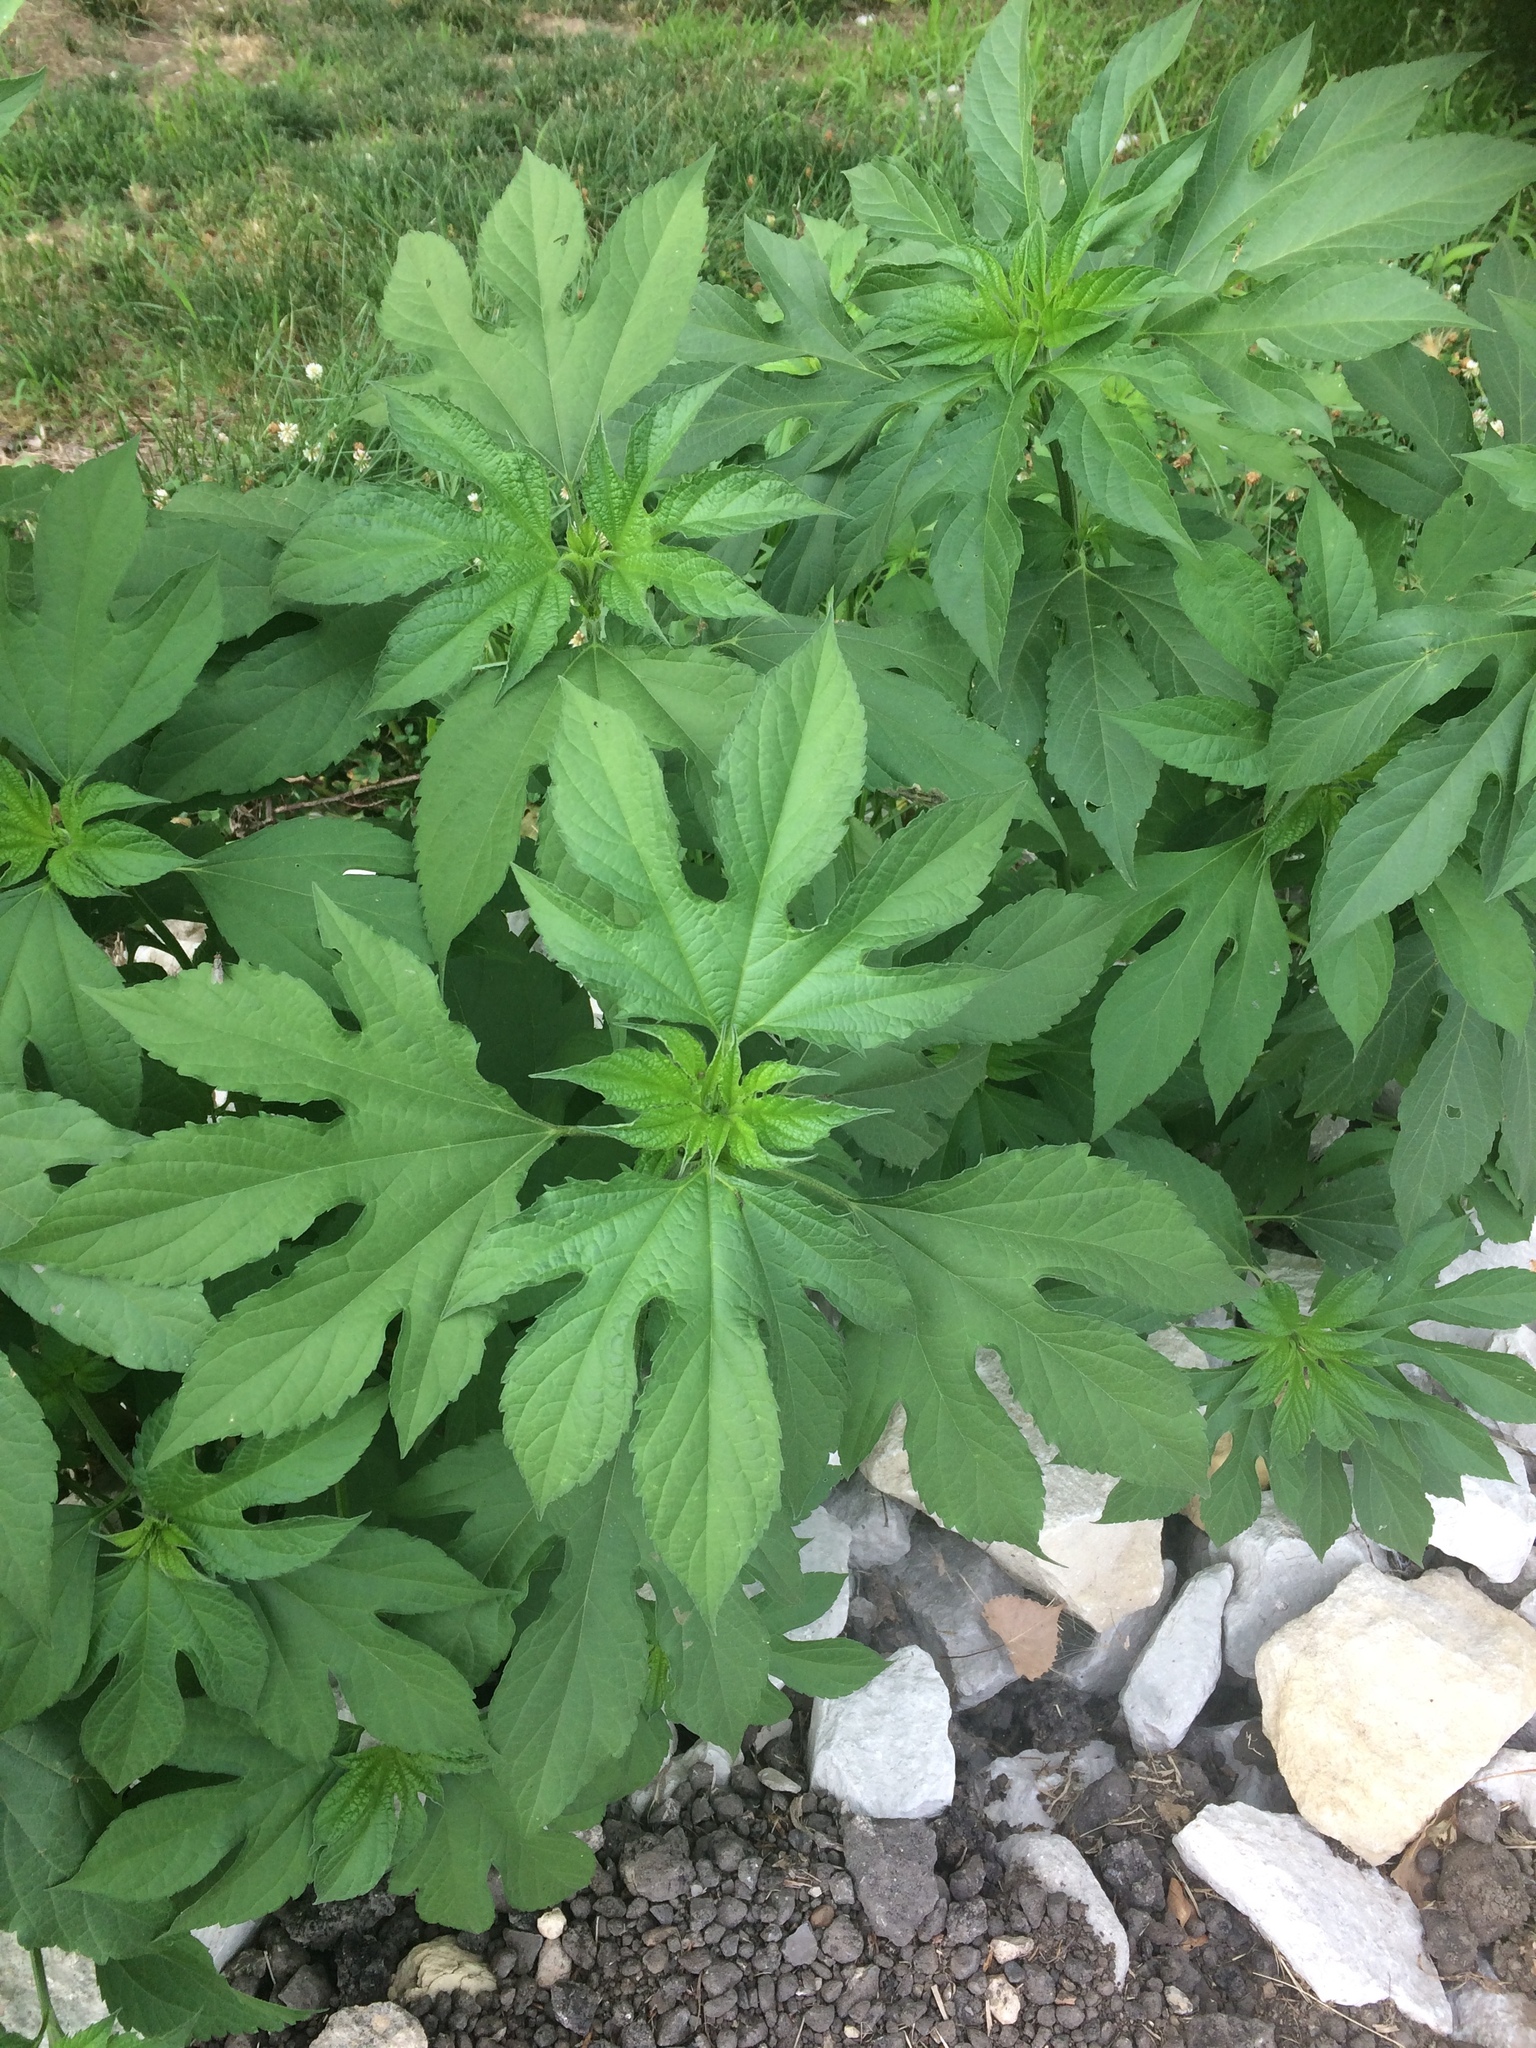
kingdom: Plantae
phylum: Tracheophyta
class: Magnoliopsida
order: Asterales
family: Asteraceae
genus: Ambrosia
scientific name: Ambrosia trifida
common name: Giant ragweed
